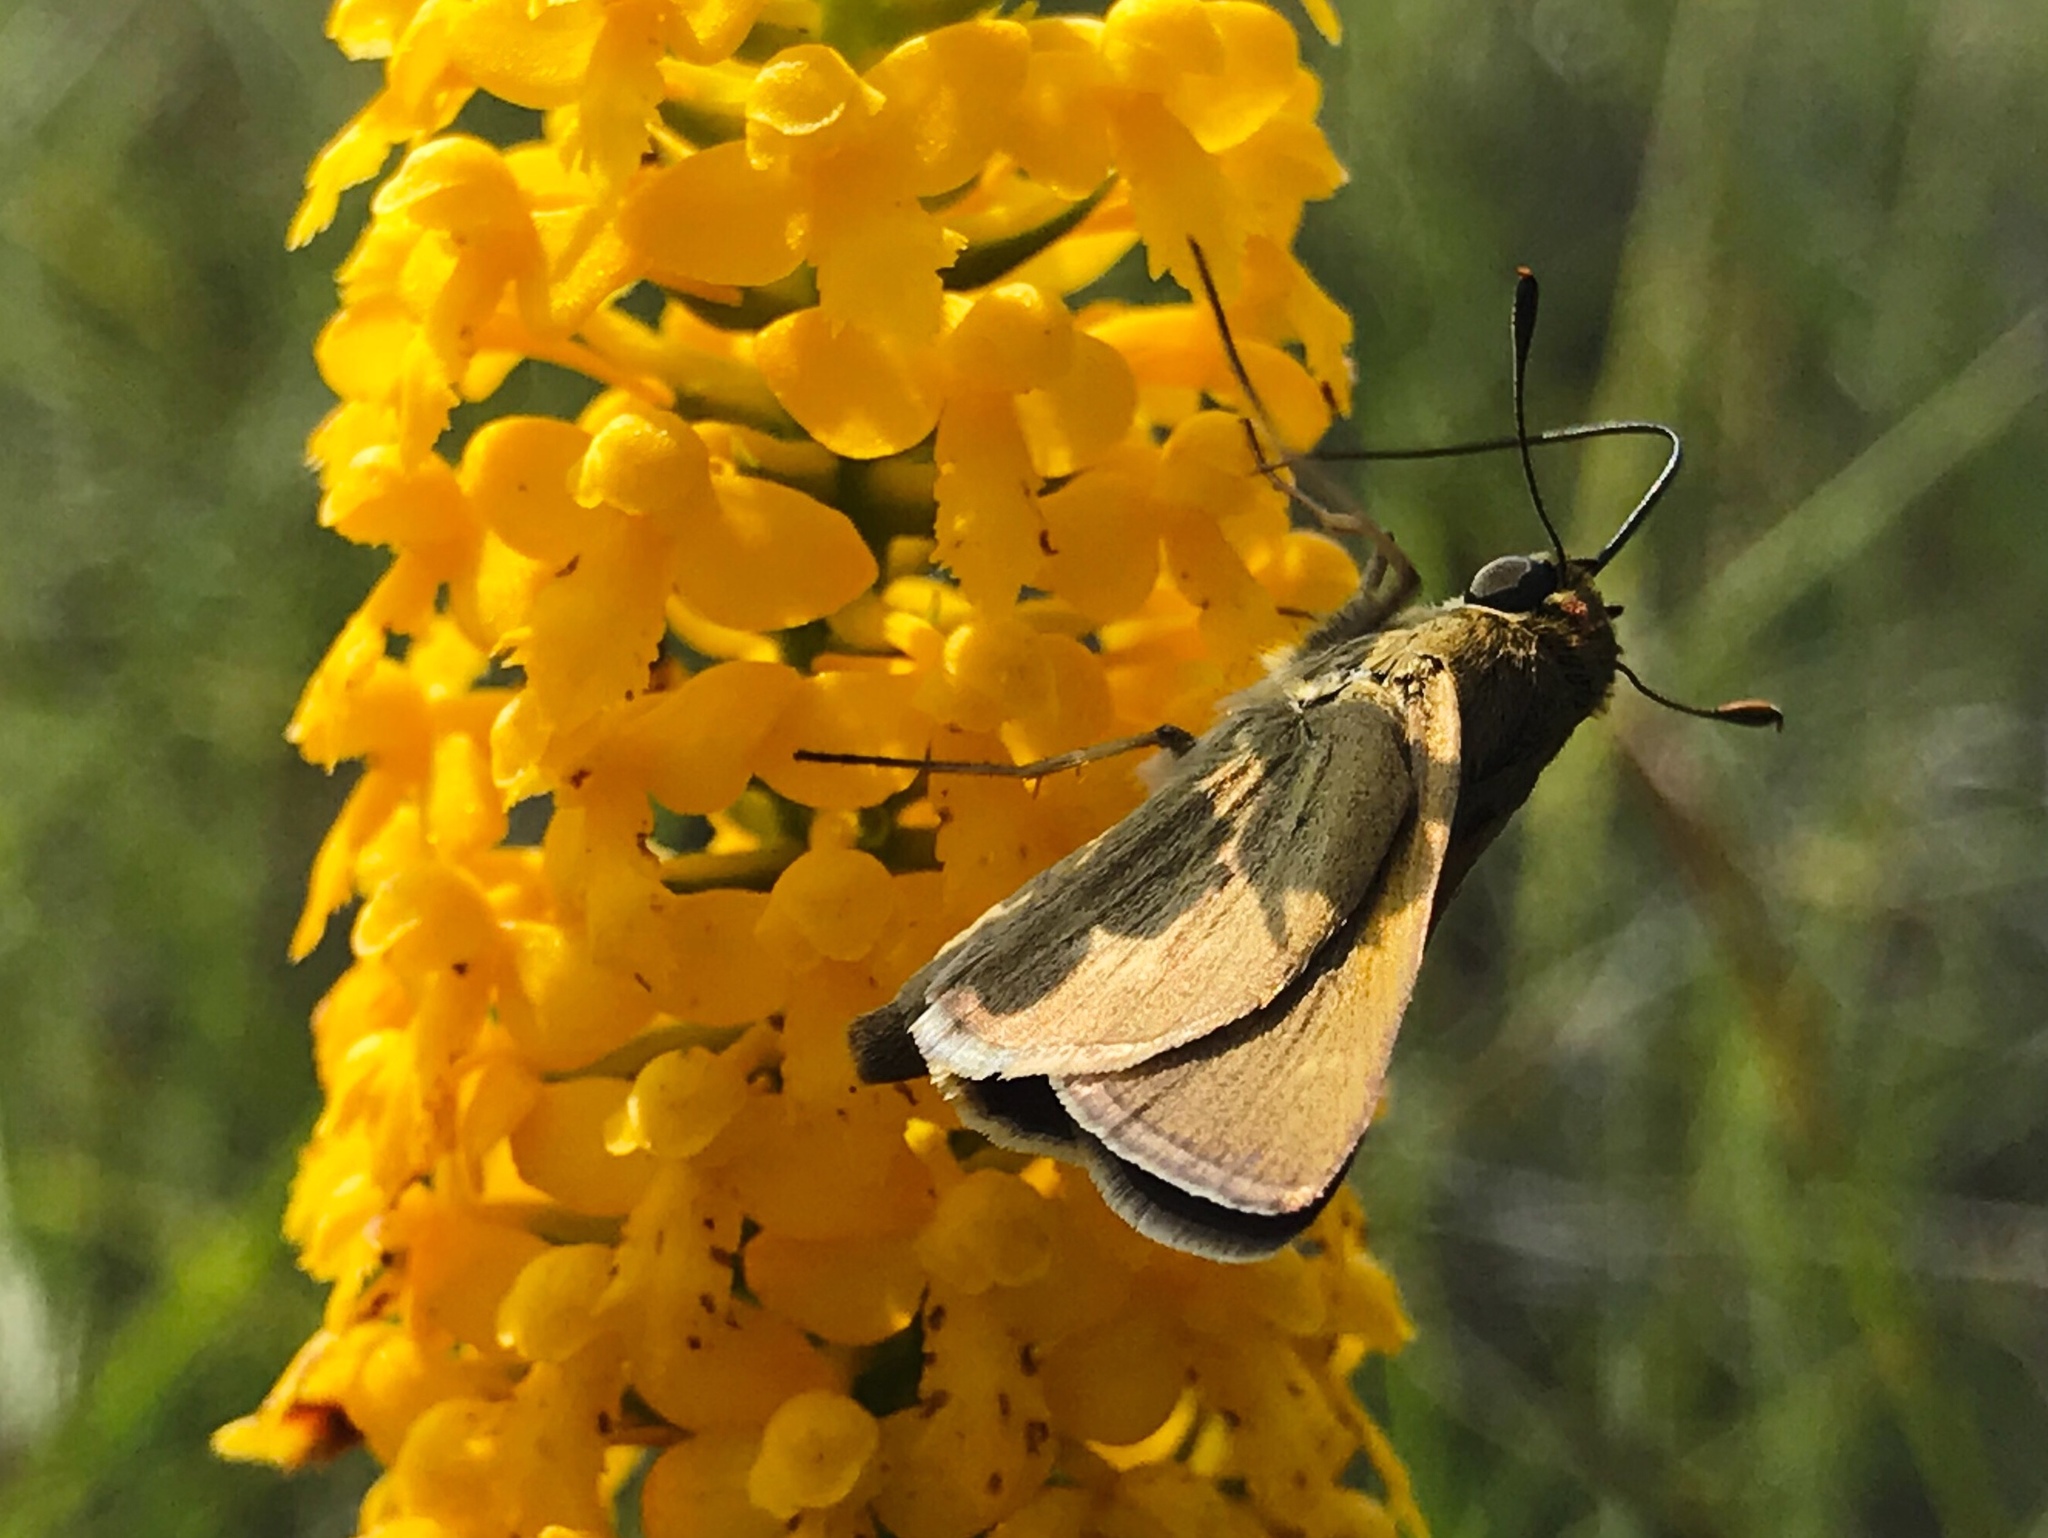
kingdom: Animalia
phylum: Arthropoda
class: Insecta
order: Lepidoptera
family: Hesperiidae
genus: Polites
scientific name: Polites themistocles
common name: Tawny-edged skipper
